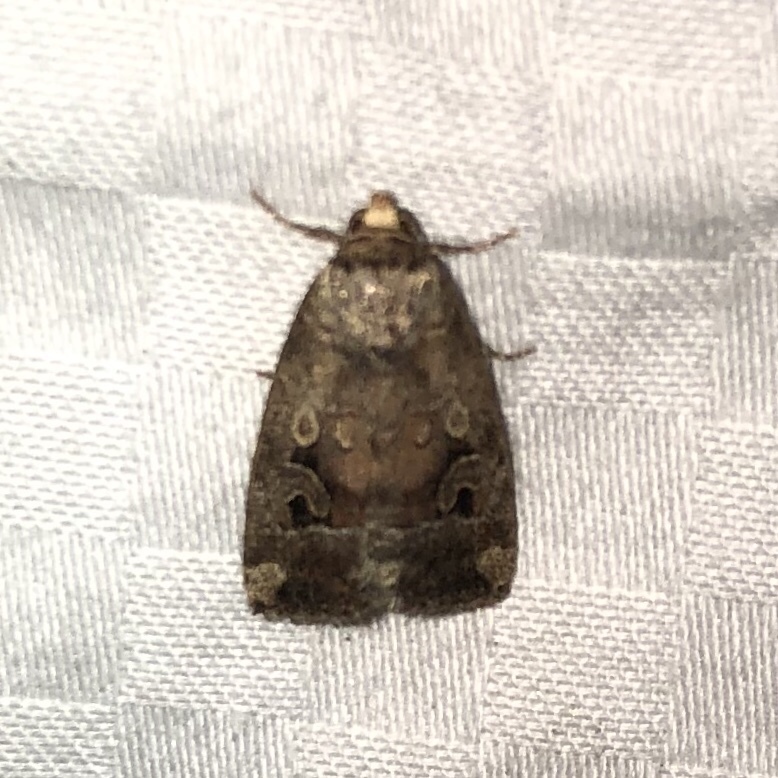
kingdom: Animalia
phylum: Arthropoda
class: Insecta
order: Lepidoptera
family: Noctuidae
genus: Elaphria
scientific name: Elaphria alapallida
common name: Pale-winged midget
